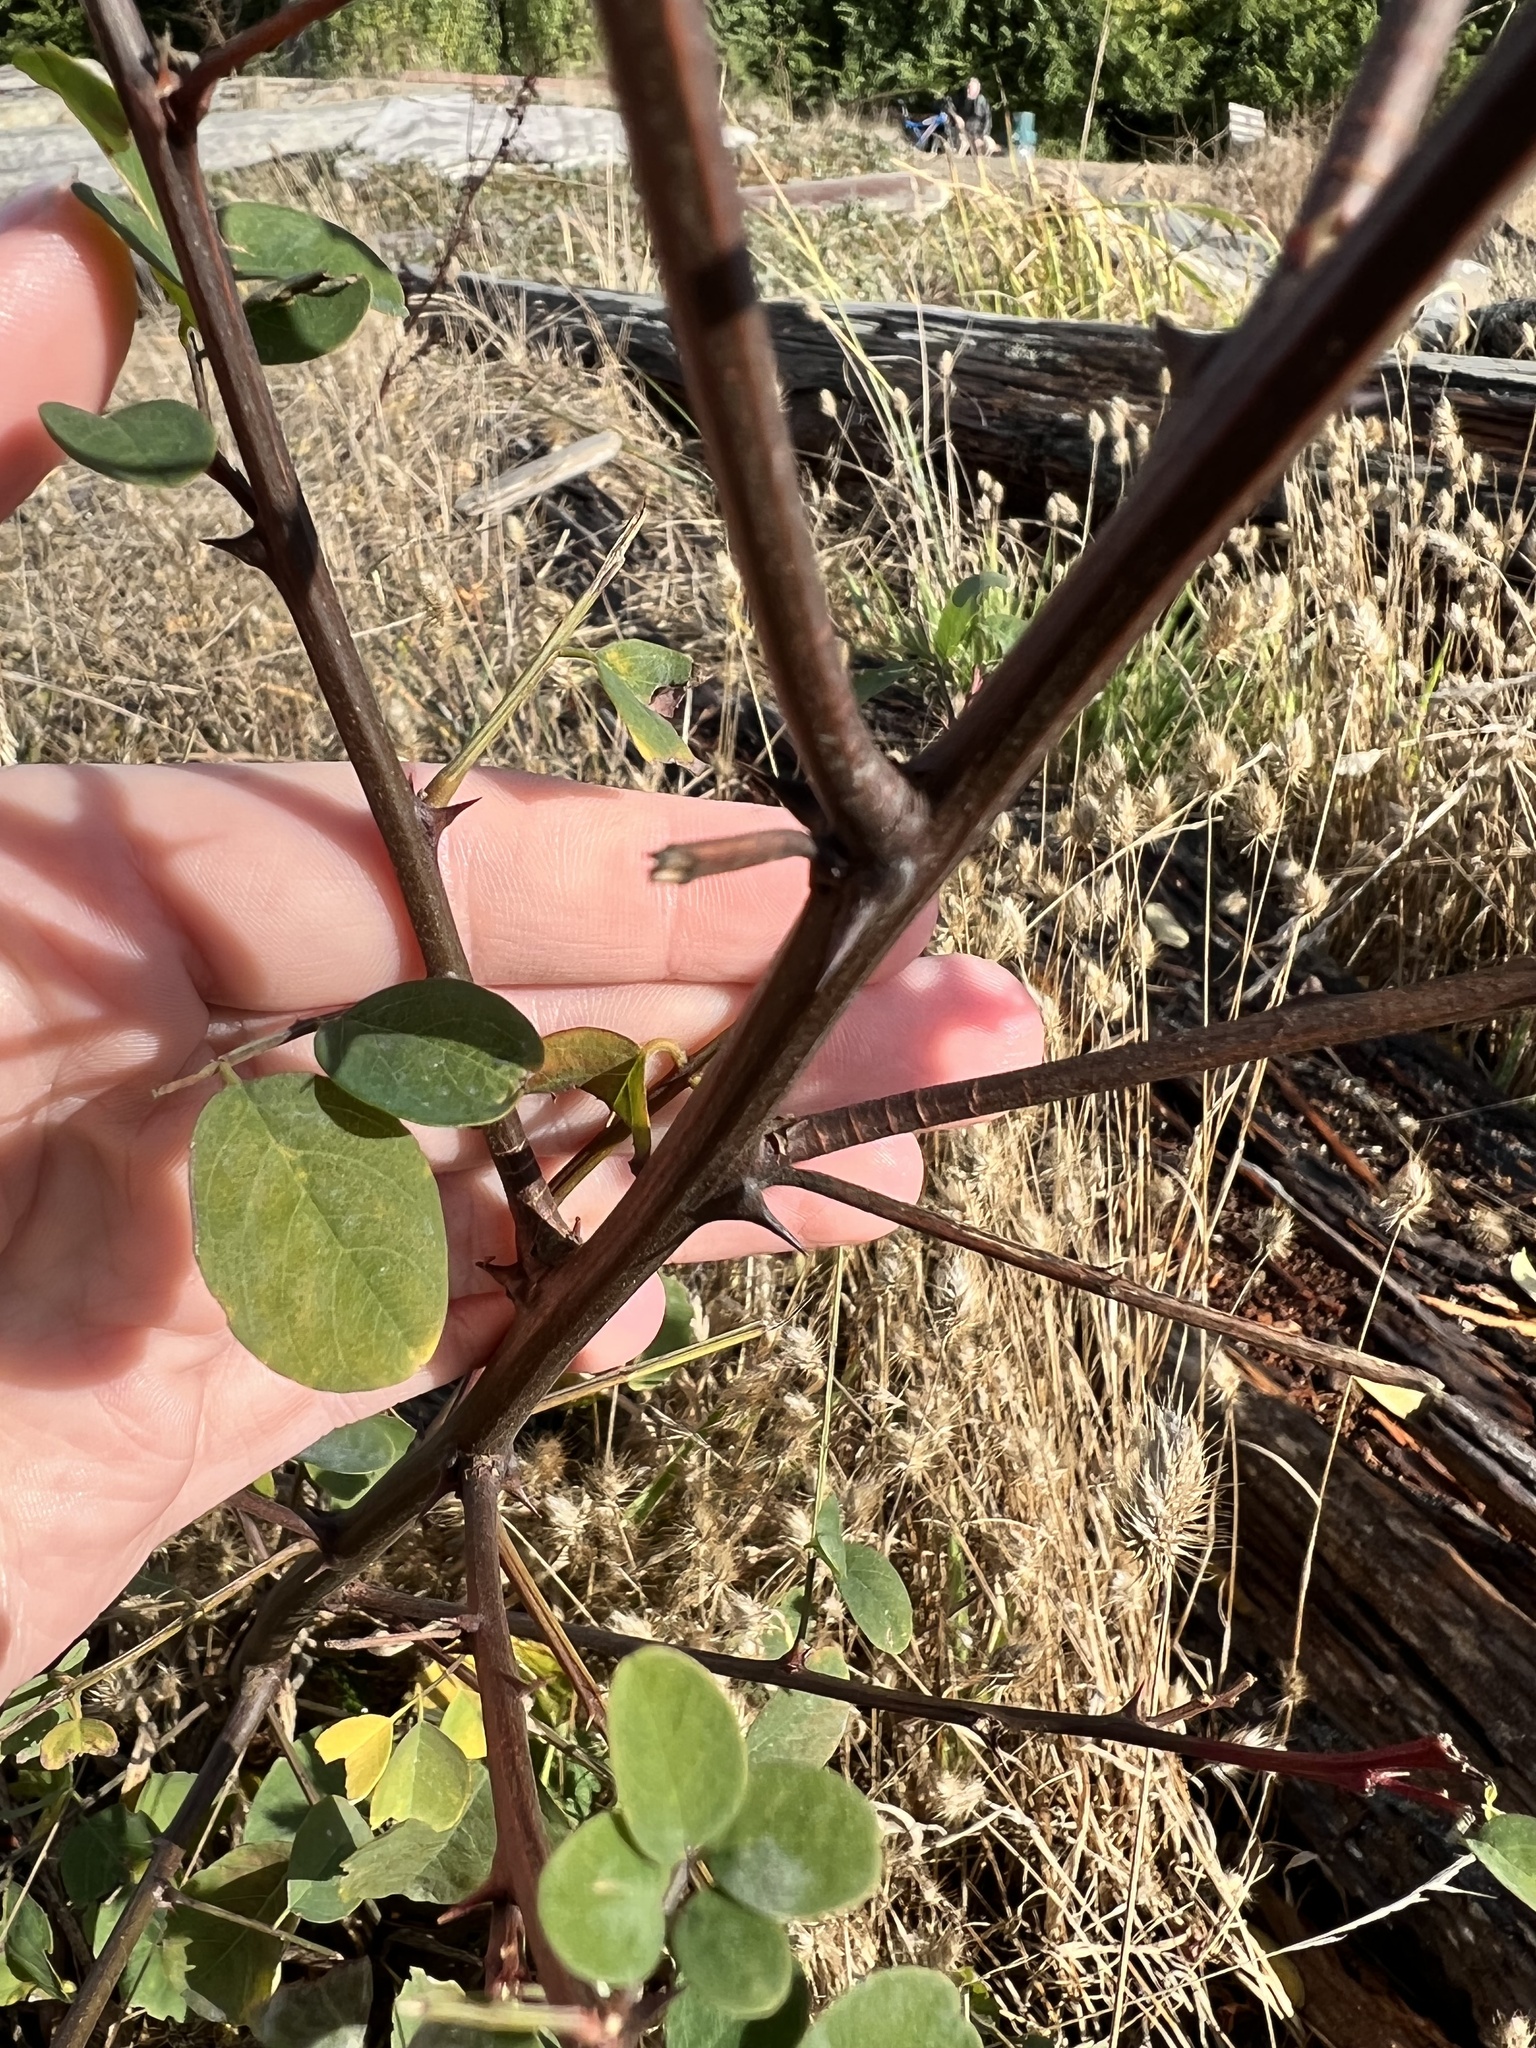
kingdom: Plantae
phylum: Tracheophyta
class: Magnoliopsida
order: Fabales
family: Fabaceae
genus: Robinia
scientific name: Robinia pseudoacacia
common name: Black locust
